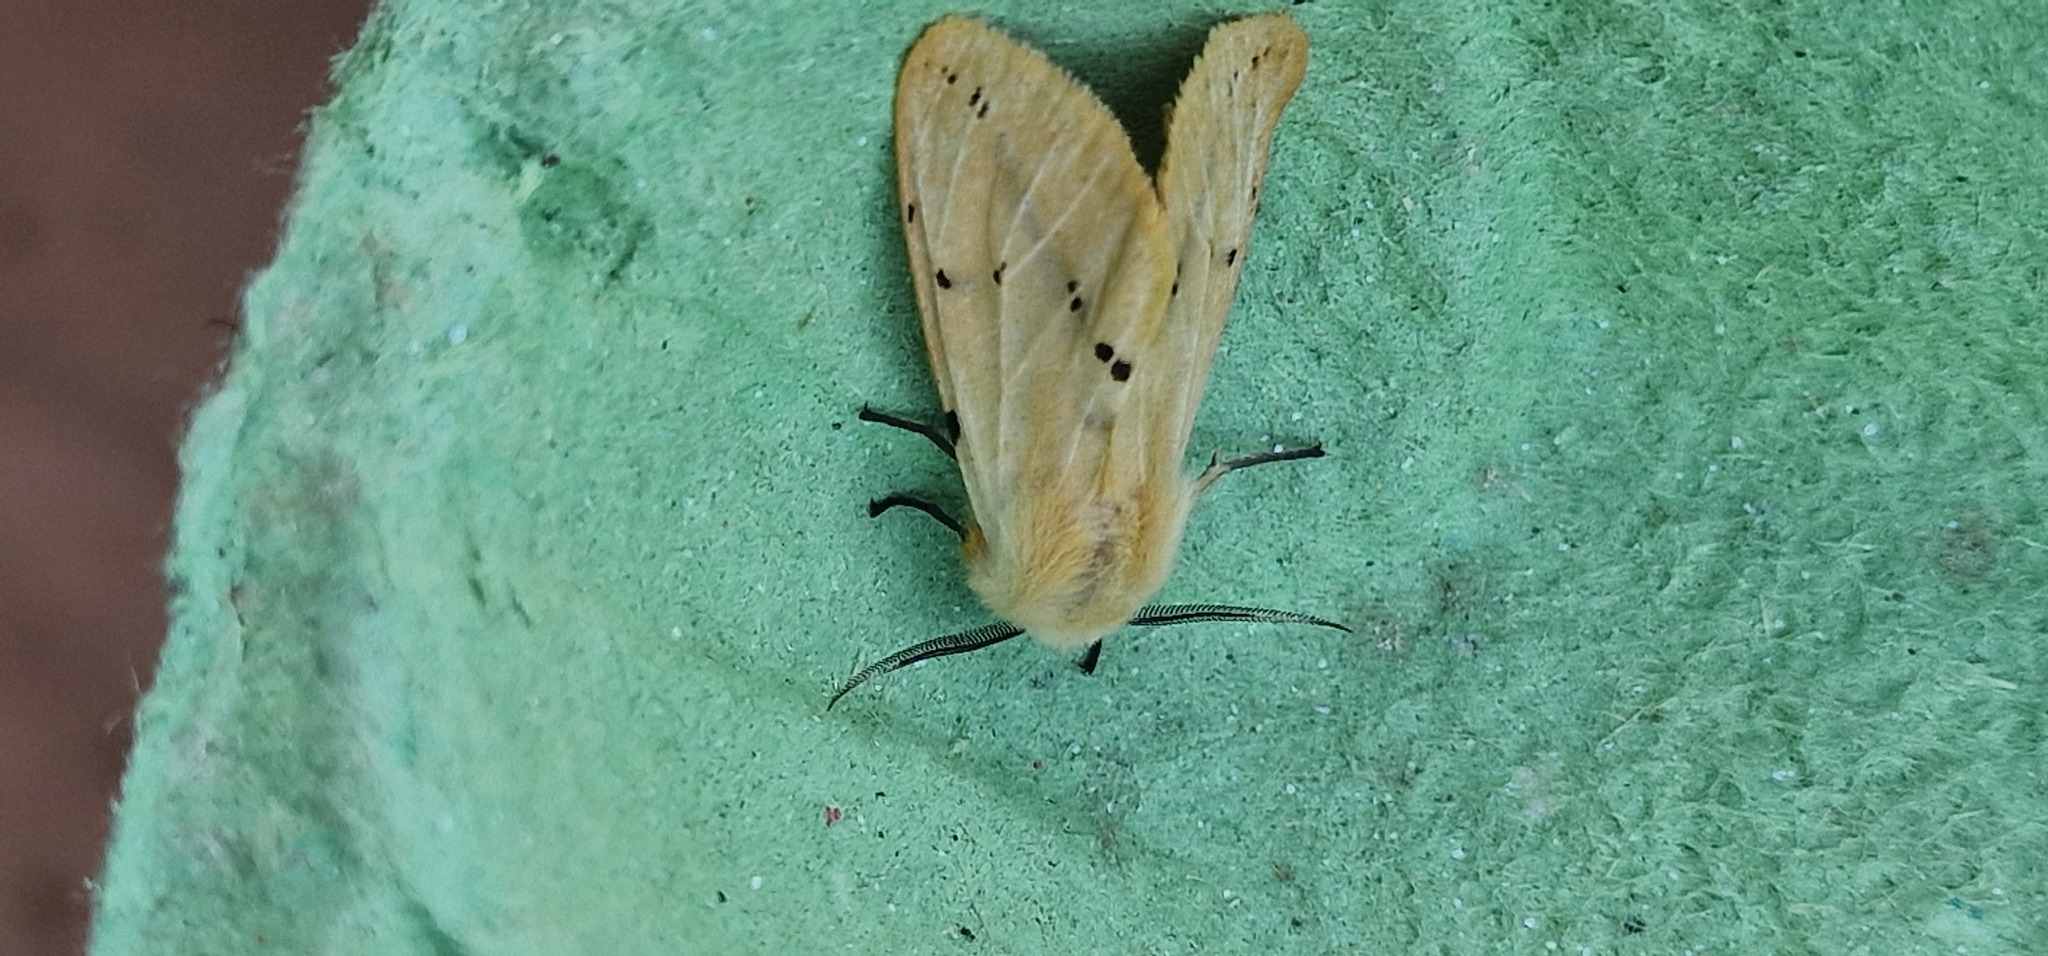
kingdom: Animalia
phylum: Arthropoda
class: Insecta
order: Lepidoptera
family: Erebidae
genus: Spilarctia
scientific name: Spilarctia lutea
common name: Buff ermine
